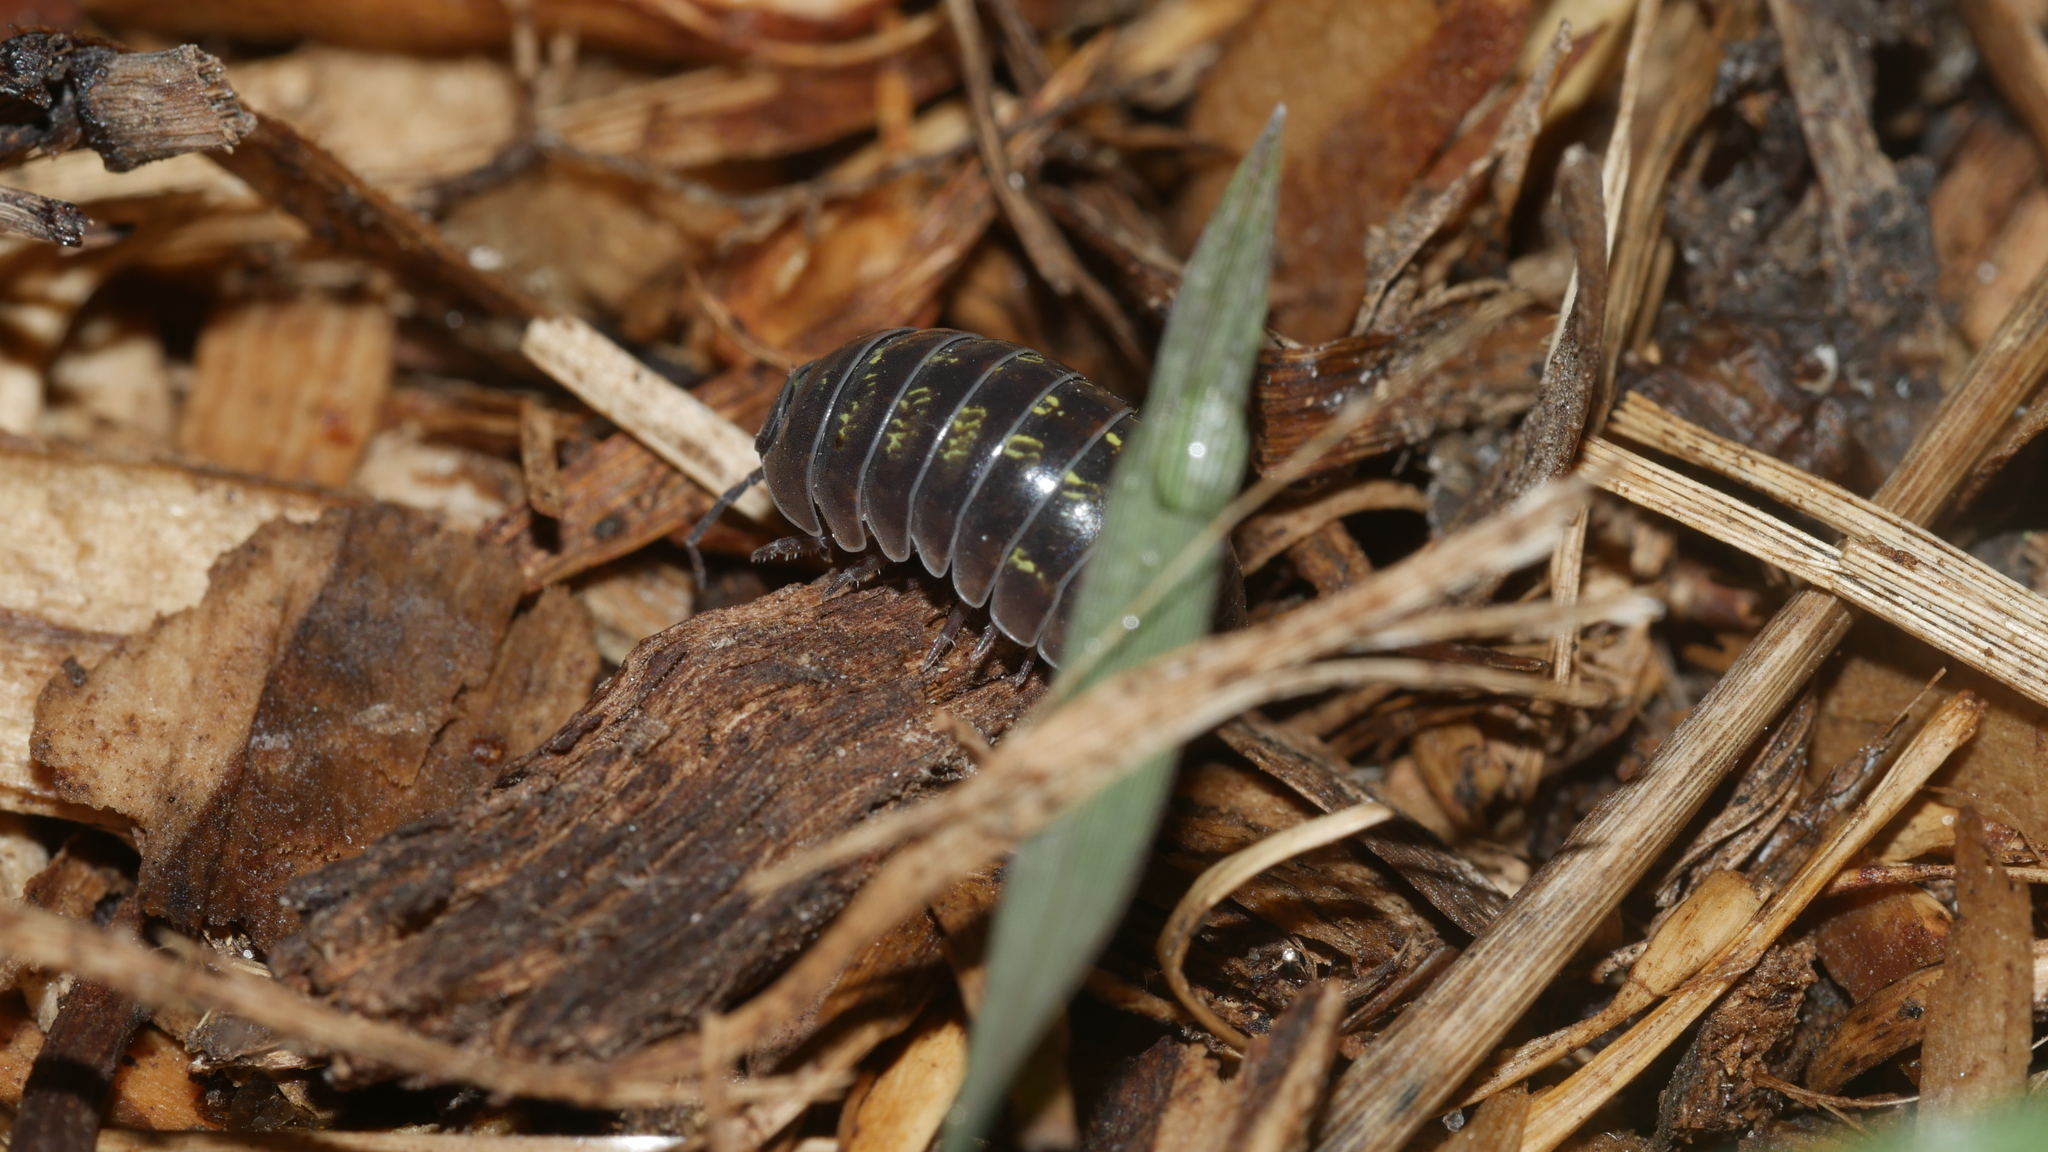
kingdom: Animalia
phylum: Arthropoda
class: Malacostraca
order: Isopoda
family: Armadillidiidae
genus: Armadillidium
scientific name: Armadillidium vulgare
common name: Common pill woodlouse
